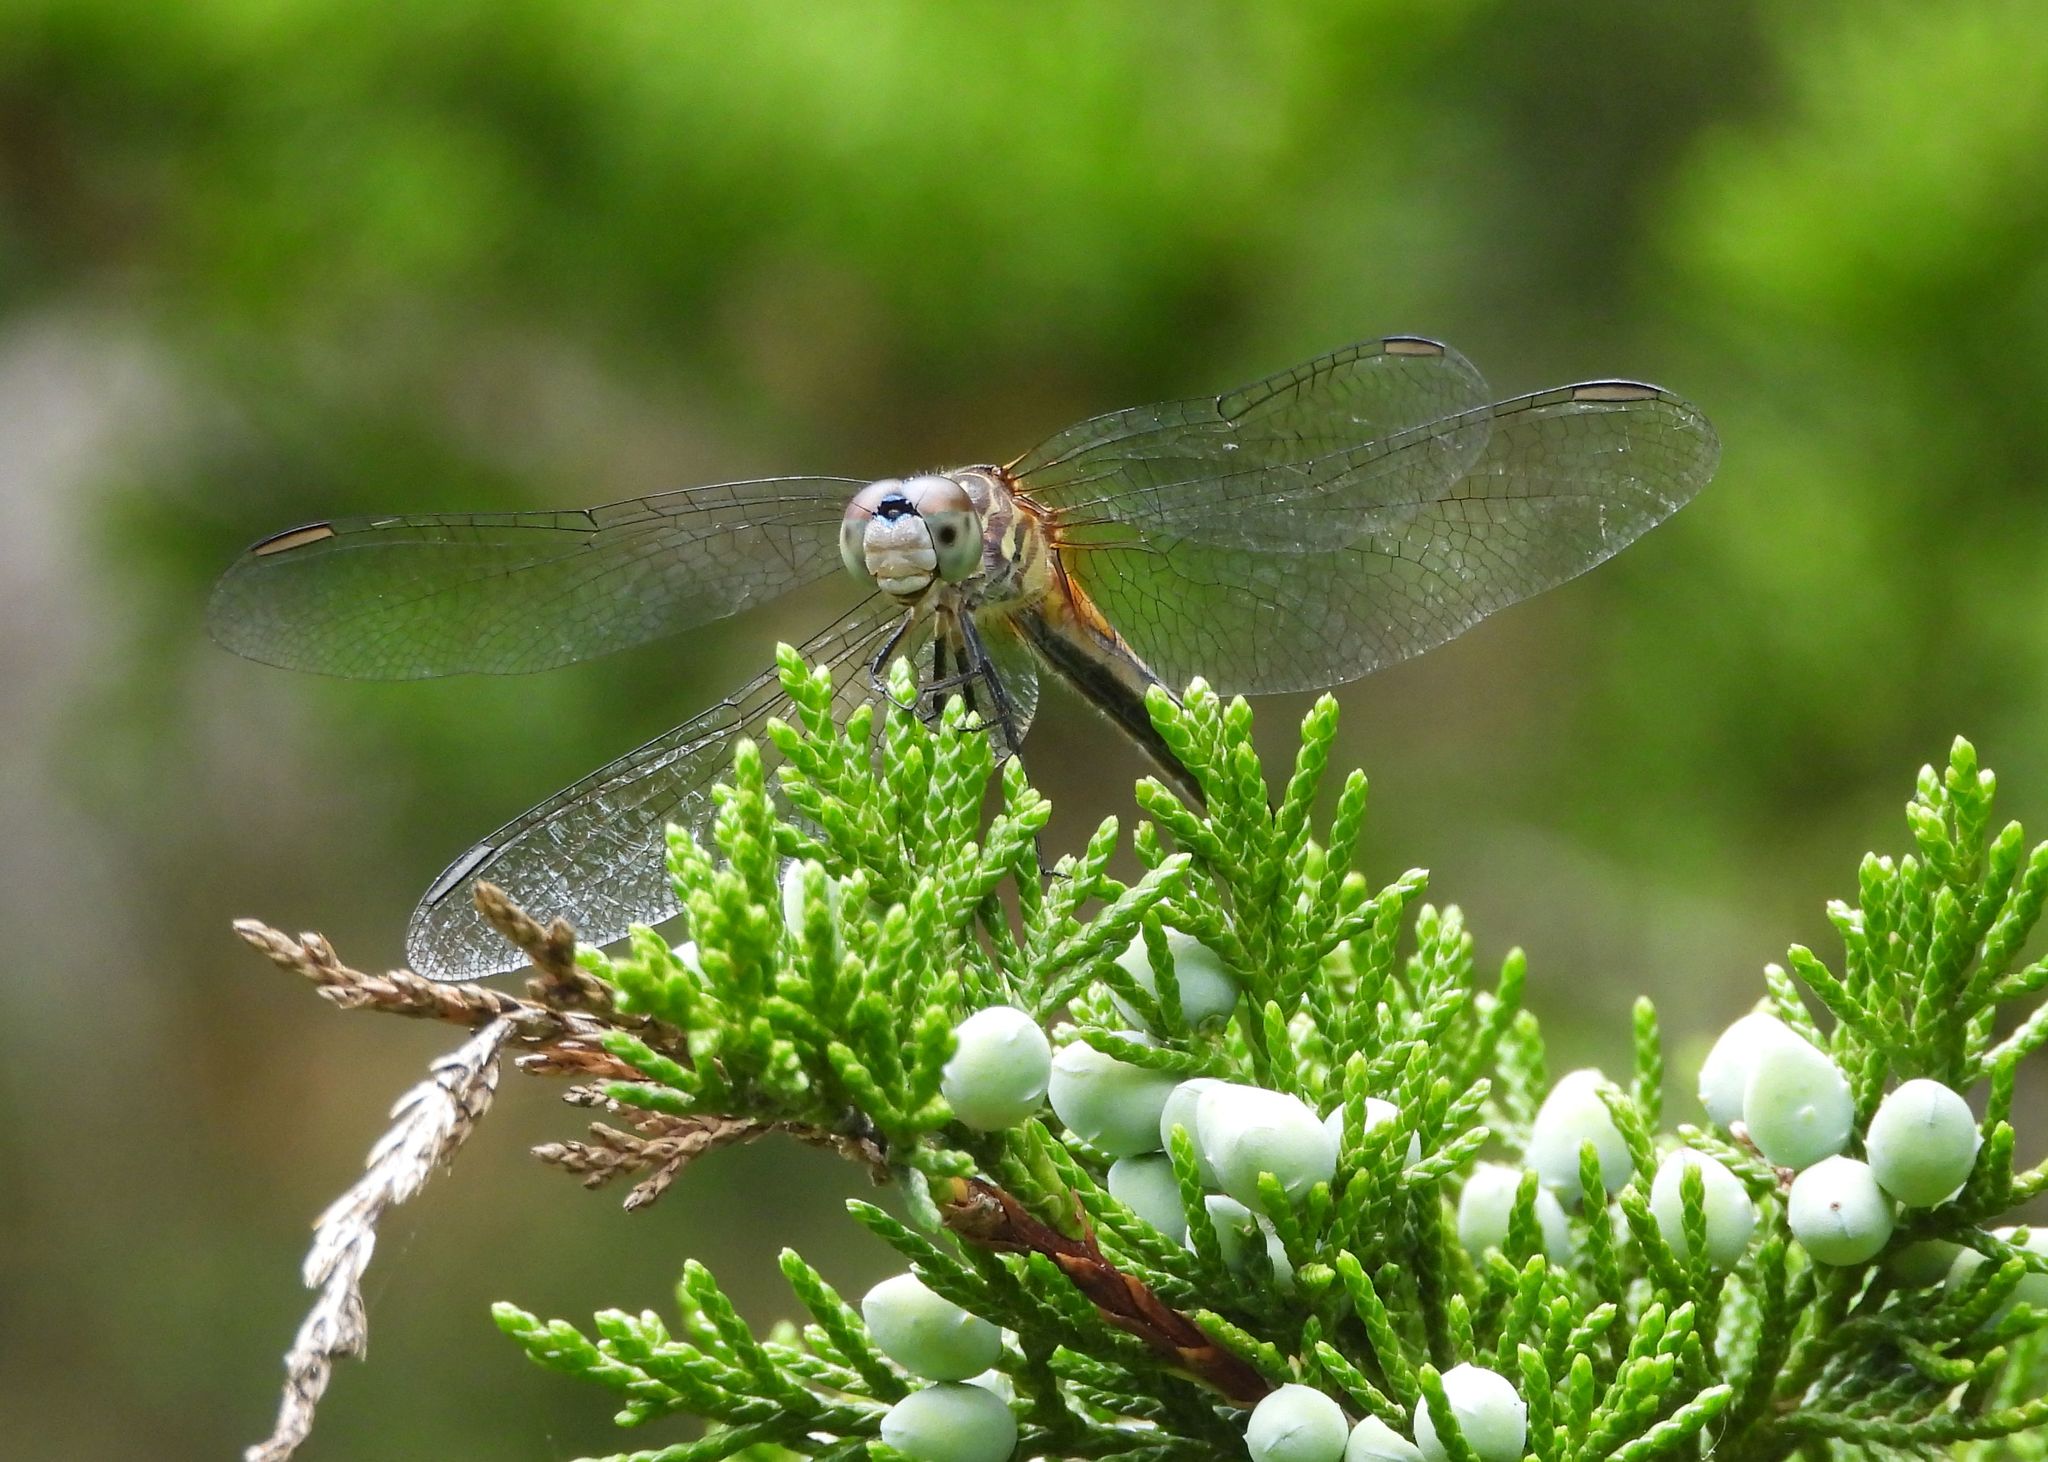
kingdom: Animalia
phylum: Arthropoda
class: Insecta
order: Odonata
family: Libellulidae
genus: Pachydiplax
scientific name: Pachydiplax longipennis
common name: Blue dasher
